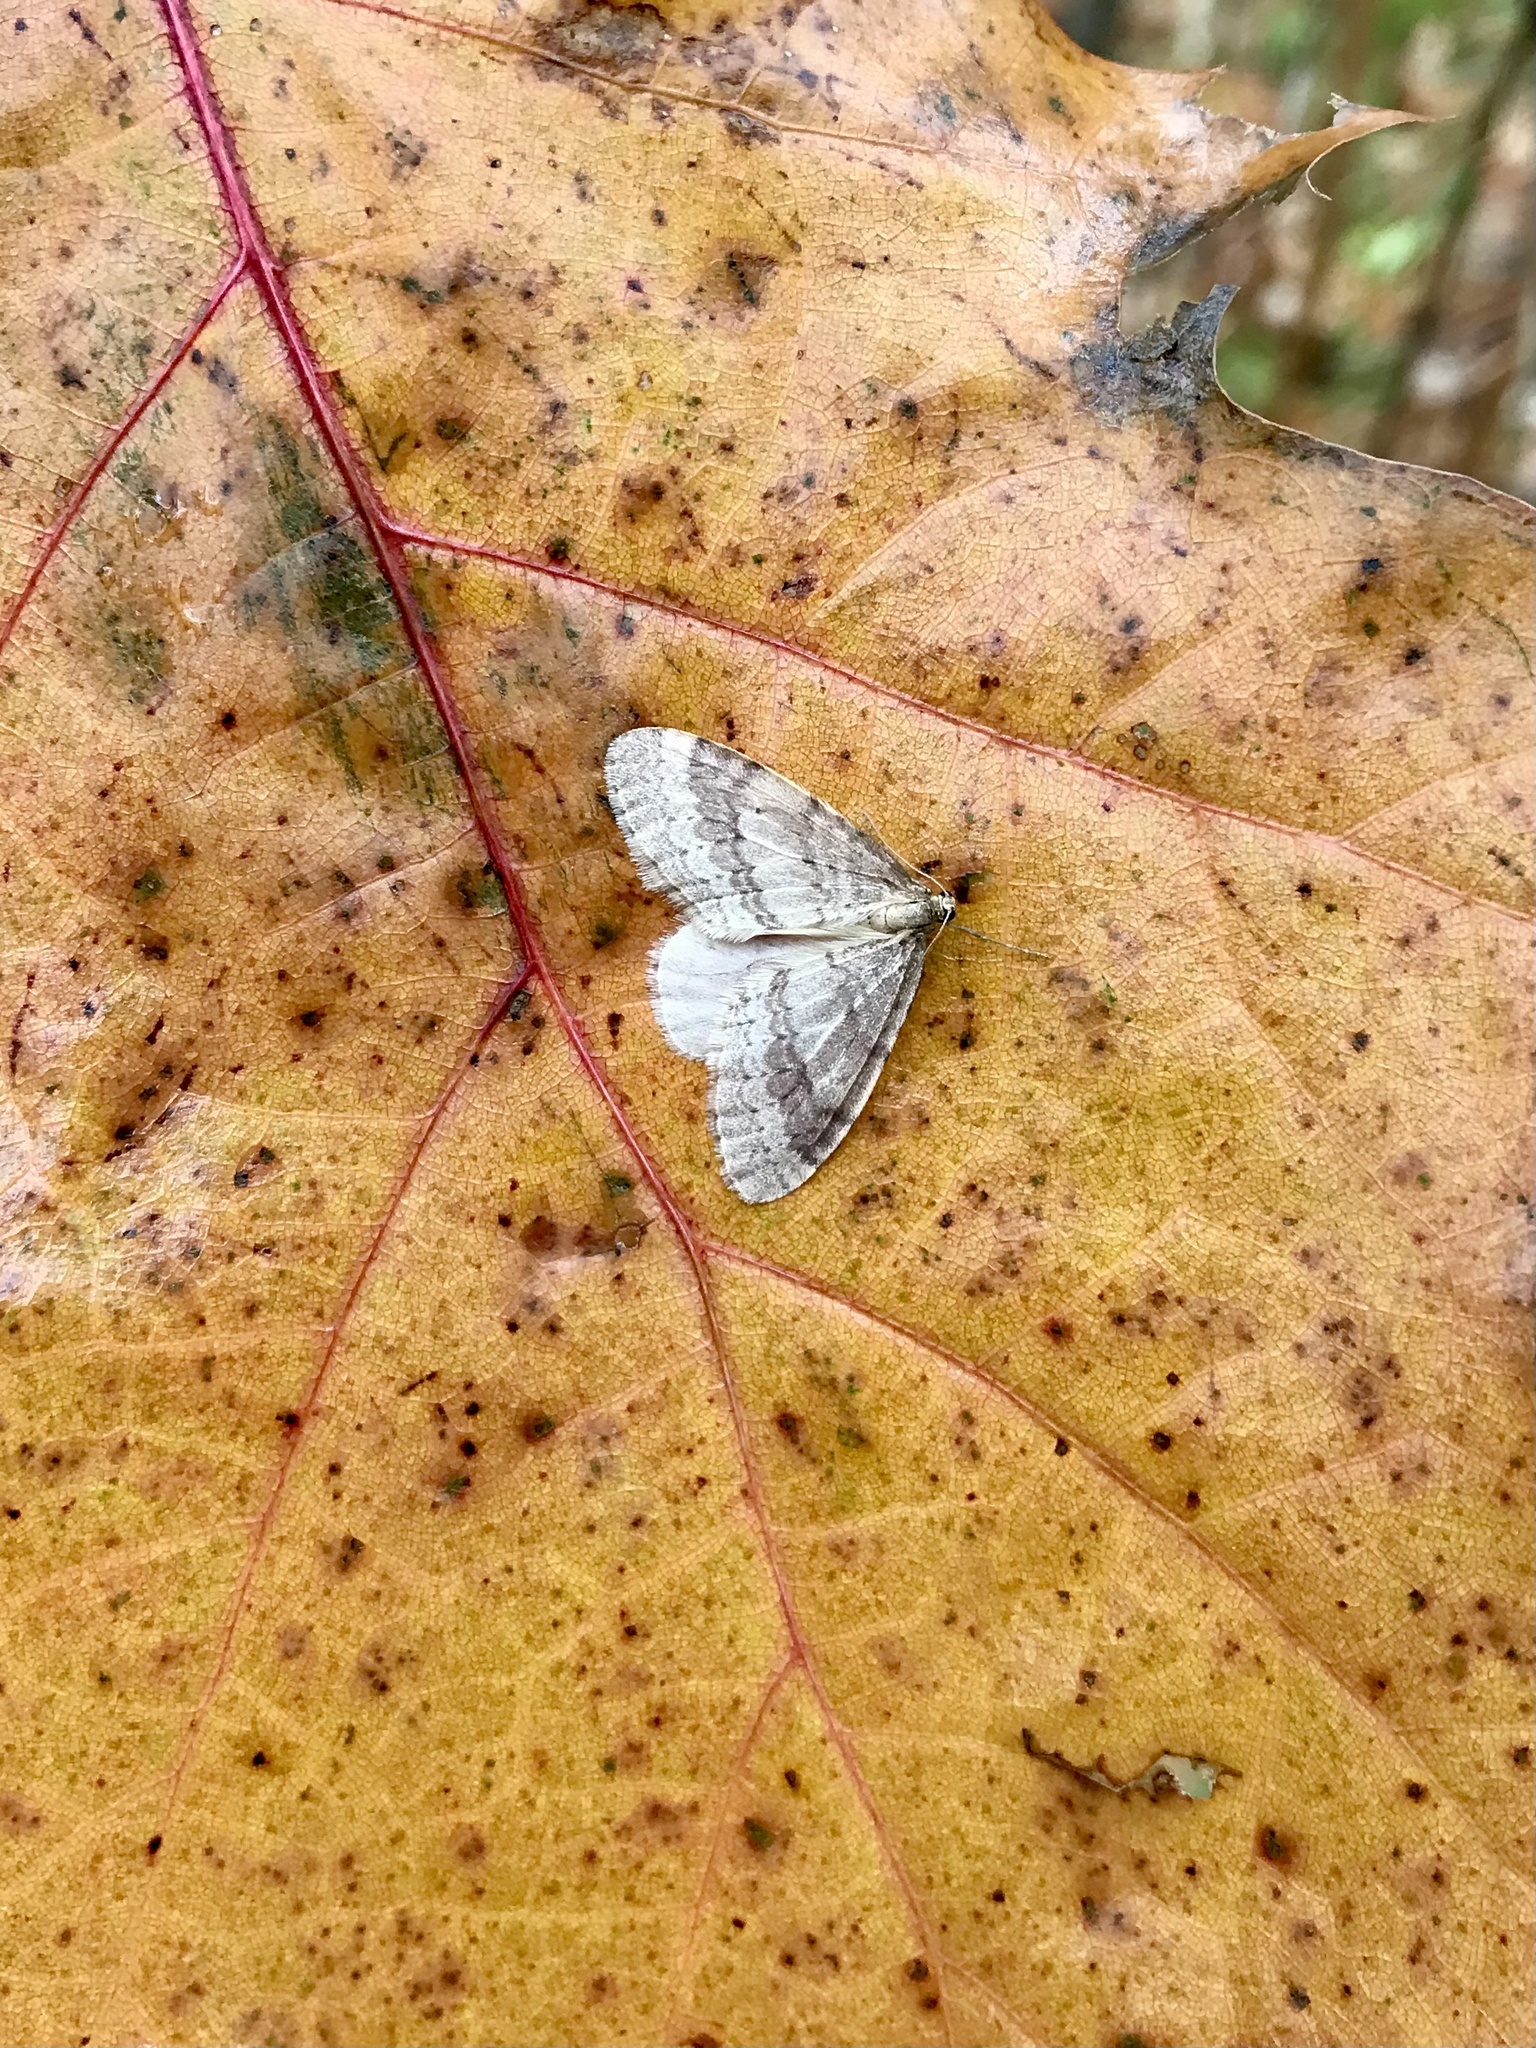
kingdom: Animalia
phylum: Arthropoda
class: Insecta
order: Lepidoptera
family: Geometridae
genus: Operophtera
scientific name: Operophtera bruceata
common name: Bruce spanworm
